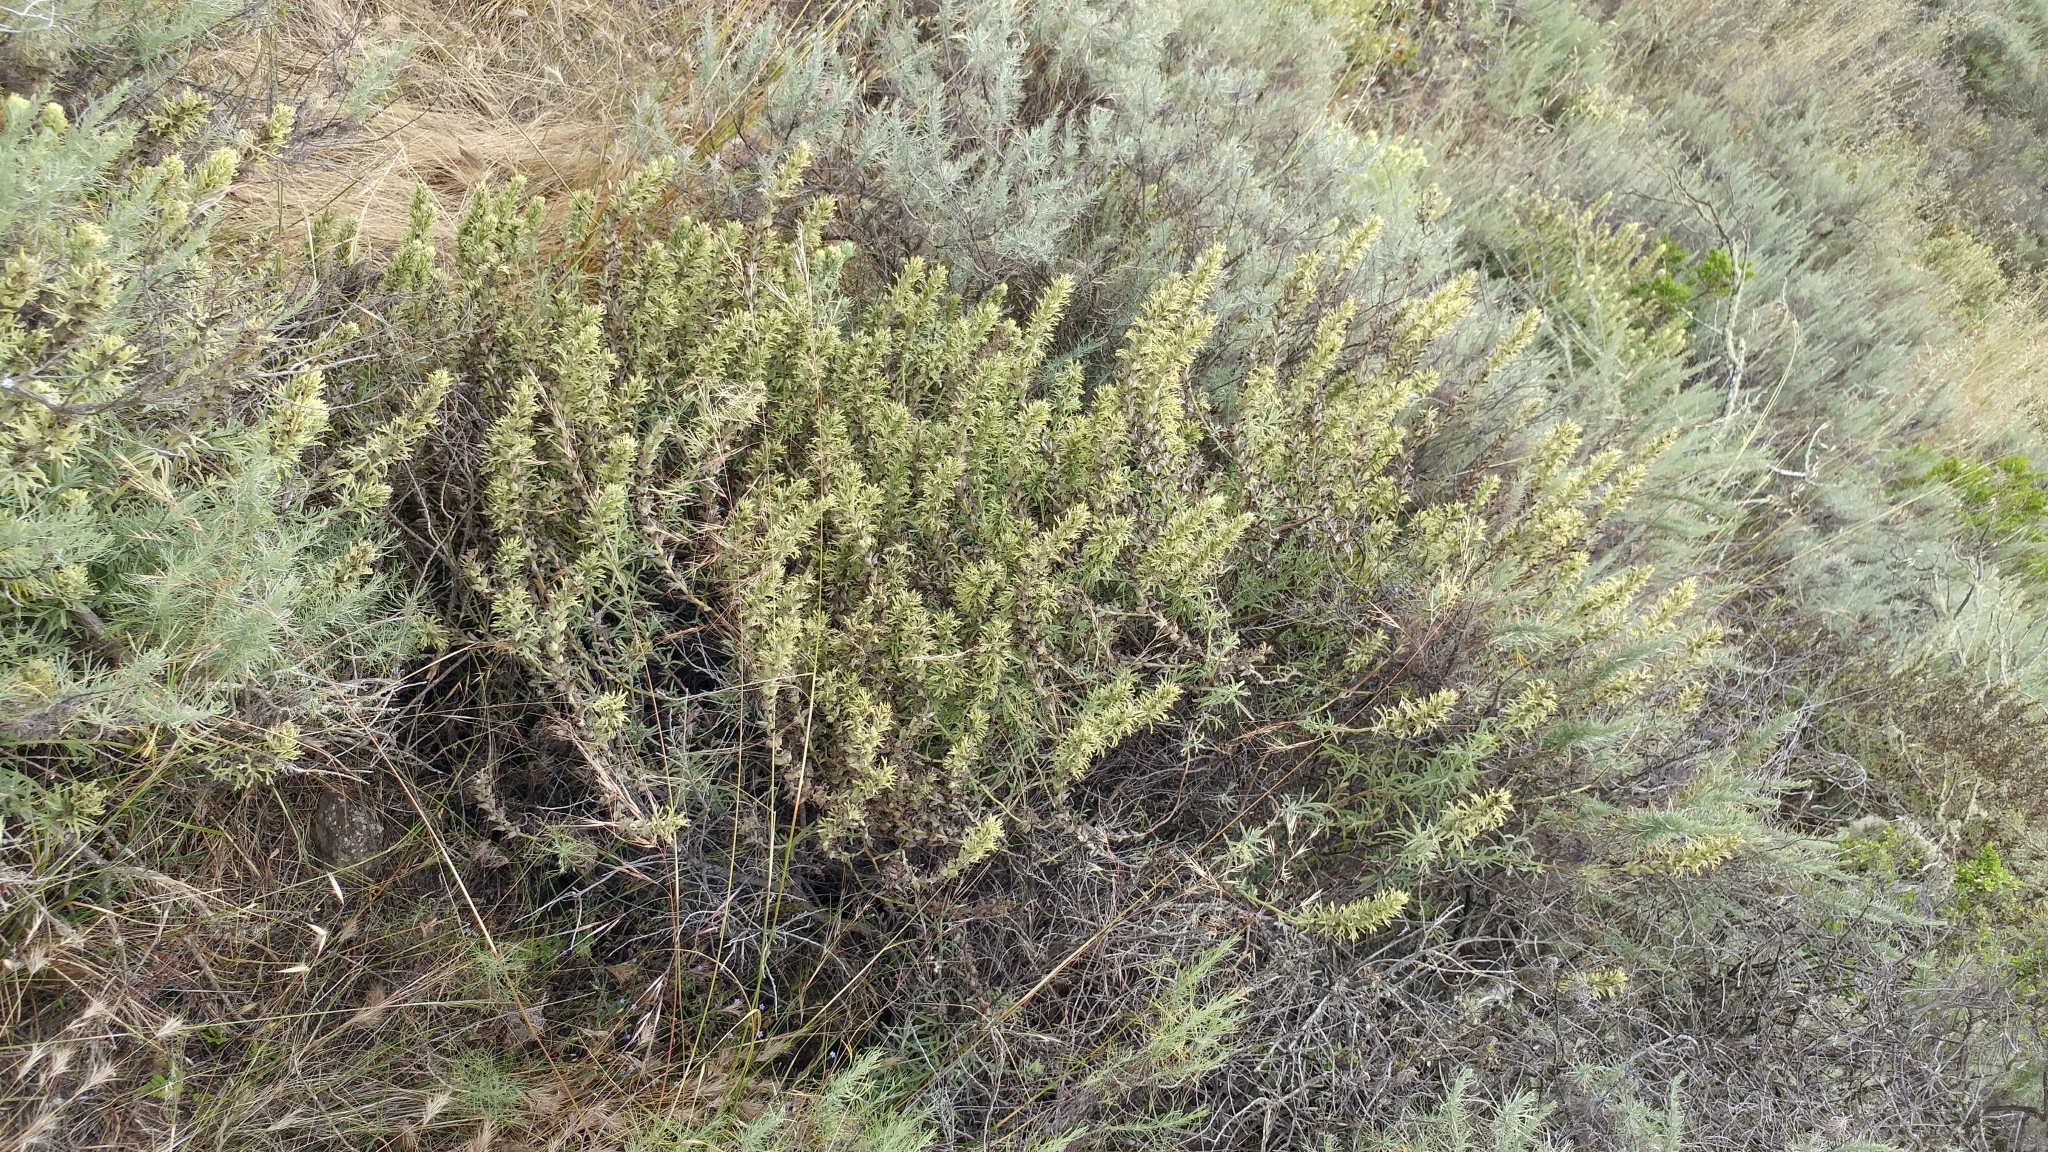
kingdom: Plantae
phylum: Tracheophyta
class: Magnoliopsida
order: Lamiales
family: Orobanchaceae
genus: Castilleja
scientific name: Castilleja grisea
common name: San clemente island indian paintbrush
